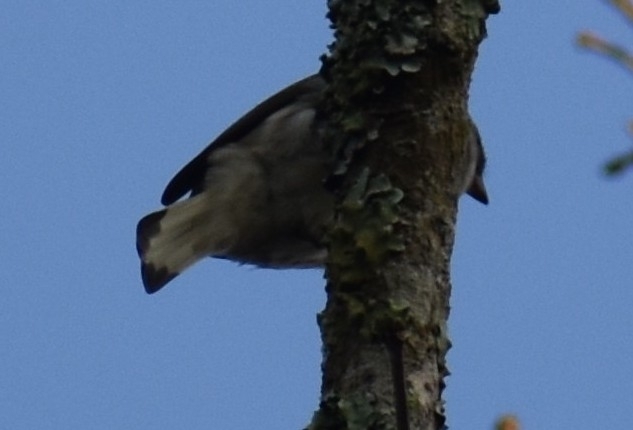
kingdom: Animalia
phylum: Chordata
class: Aves
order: Piciformes
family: Indicatoridae
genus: Indicator
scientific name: Indicator minor
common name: Lesser honeyguide
